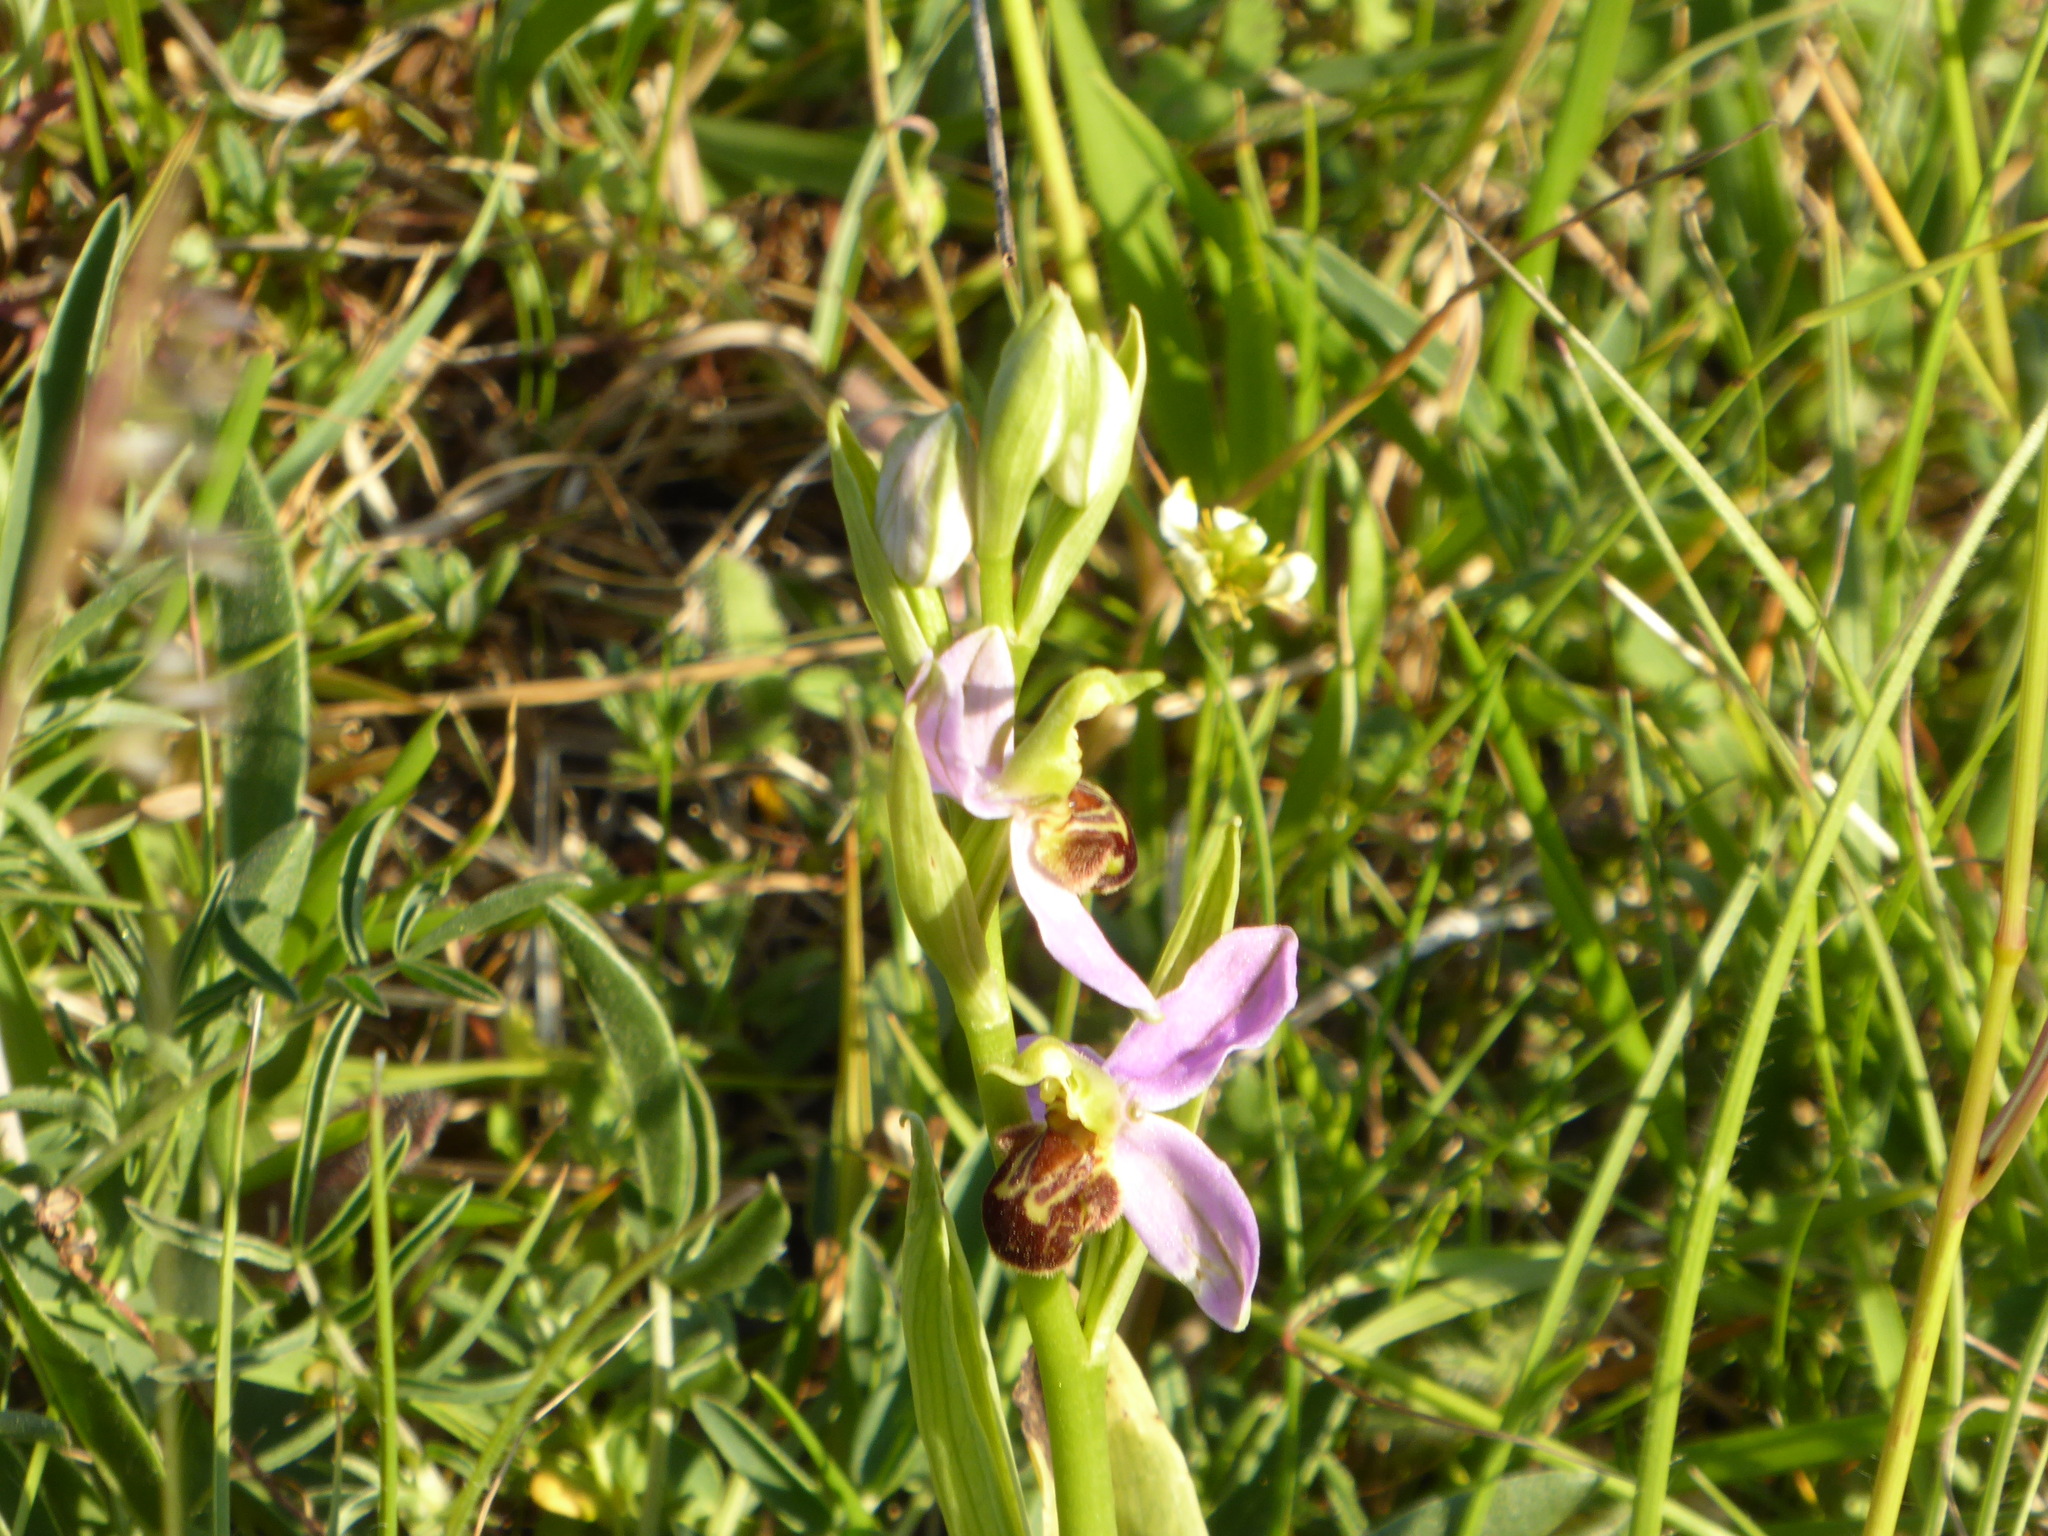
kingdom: Plantae
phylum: Tracheophyta
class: Liliopsida
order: Asparagales
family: Orchidaceae
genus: Ophrys
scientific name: Ophrys apifera
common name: Bee orchid
